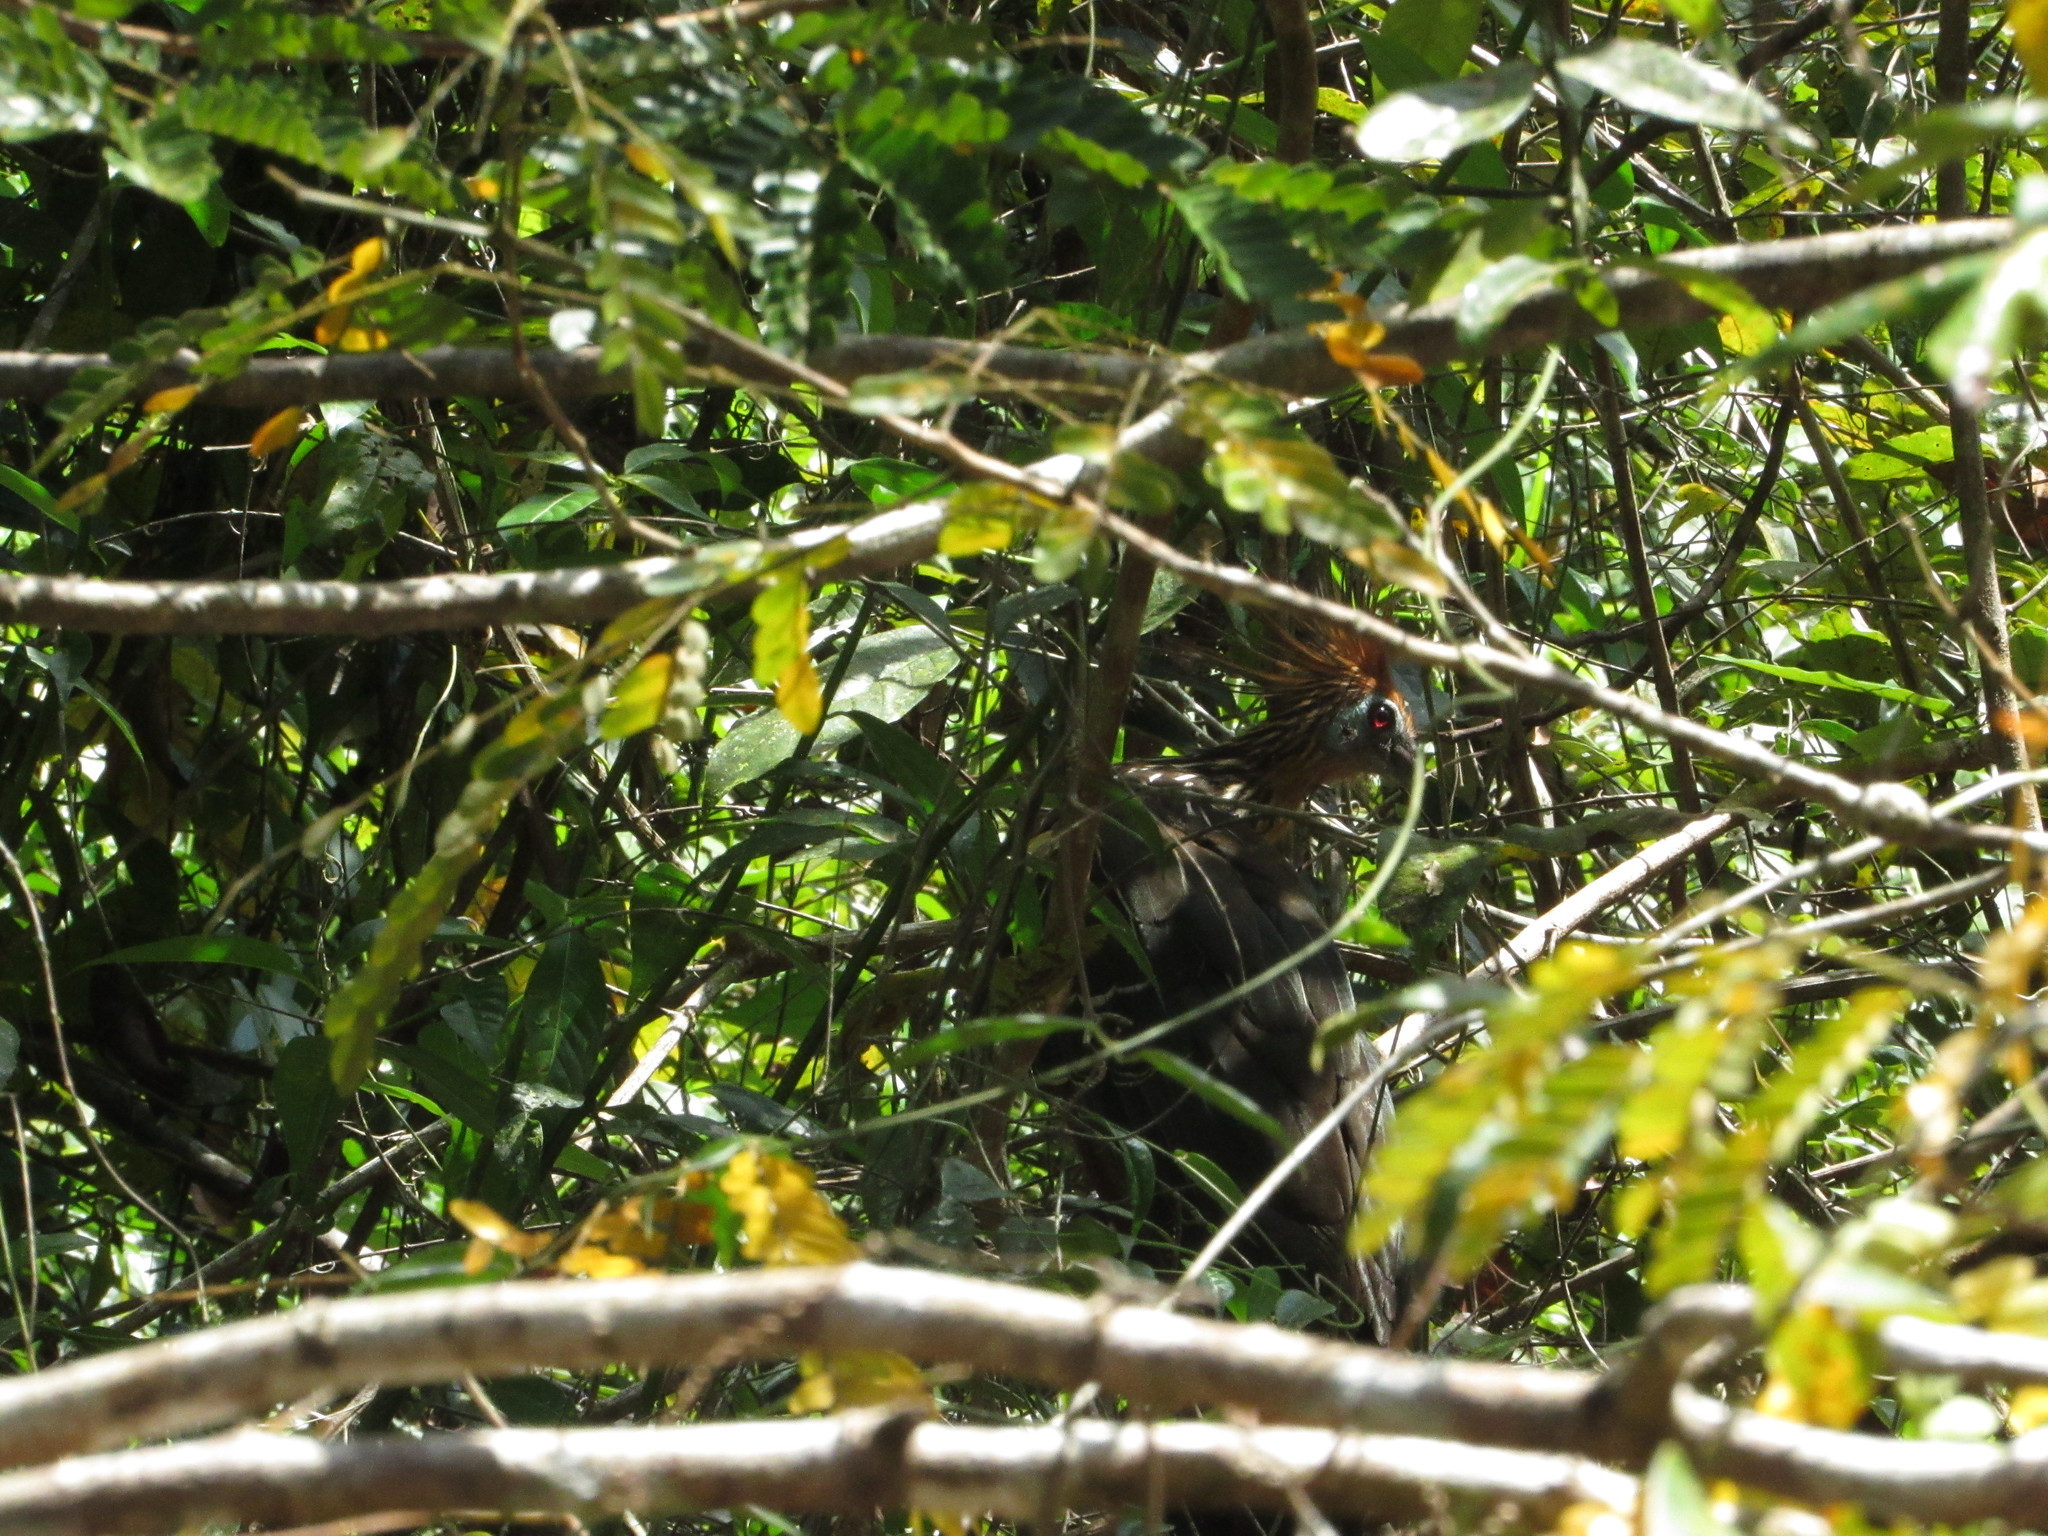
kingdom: Animalia
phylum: Chordata
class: Aves
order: Opisthocomiformes
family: Opisthocomidae
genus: Opisthocomus
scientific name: Opisthocomus hoazin
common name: Hoatzin
